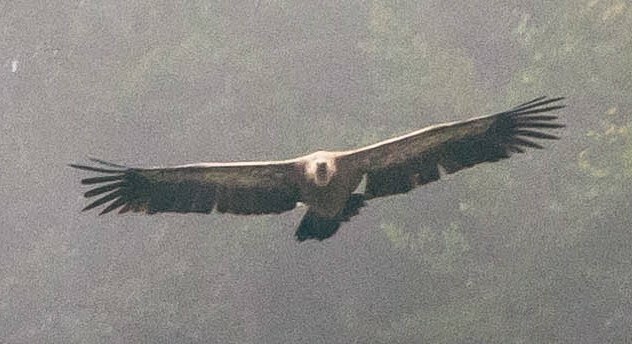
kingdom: Animalia
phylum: Chordata
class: Aves
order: Accipitriformes
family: Accipitridae
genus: Gyps
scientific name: Gyps fulvus
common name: Griffon vulture
